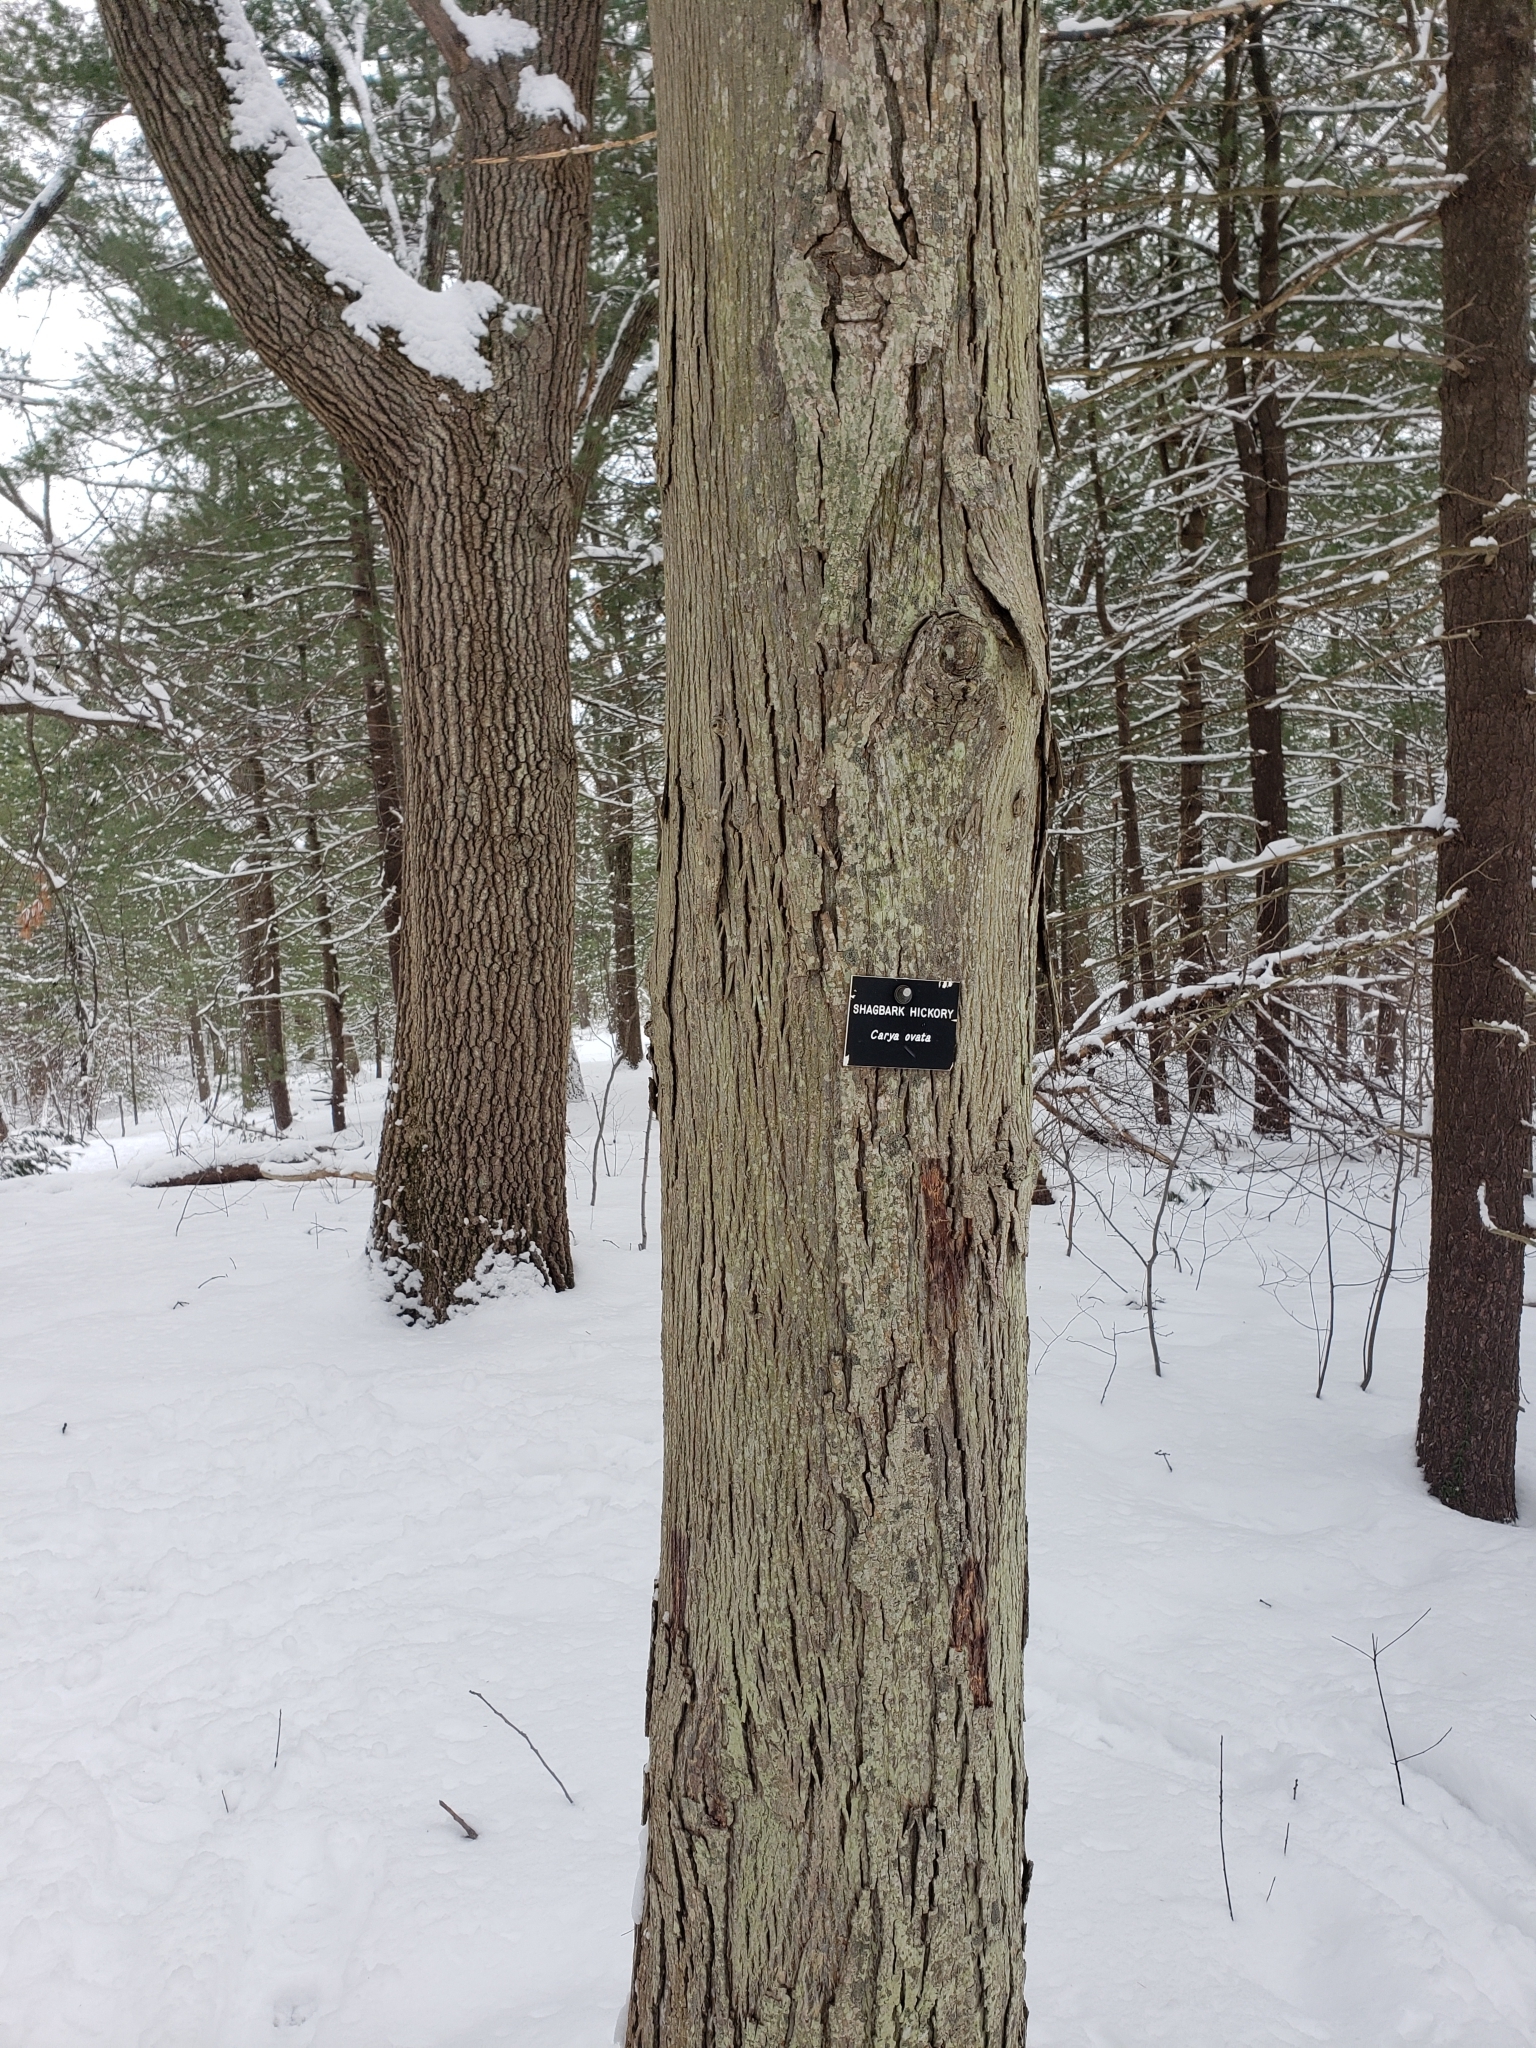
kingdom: Plantae
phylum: Tracheophyta
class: Magnoliopsida
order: Fagales
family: Juglandaceae
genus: Carya
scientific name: Carya ovata
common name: Shagbark hickory
